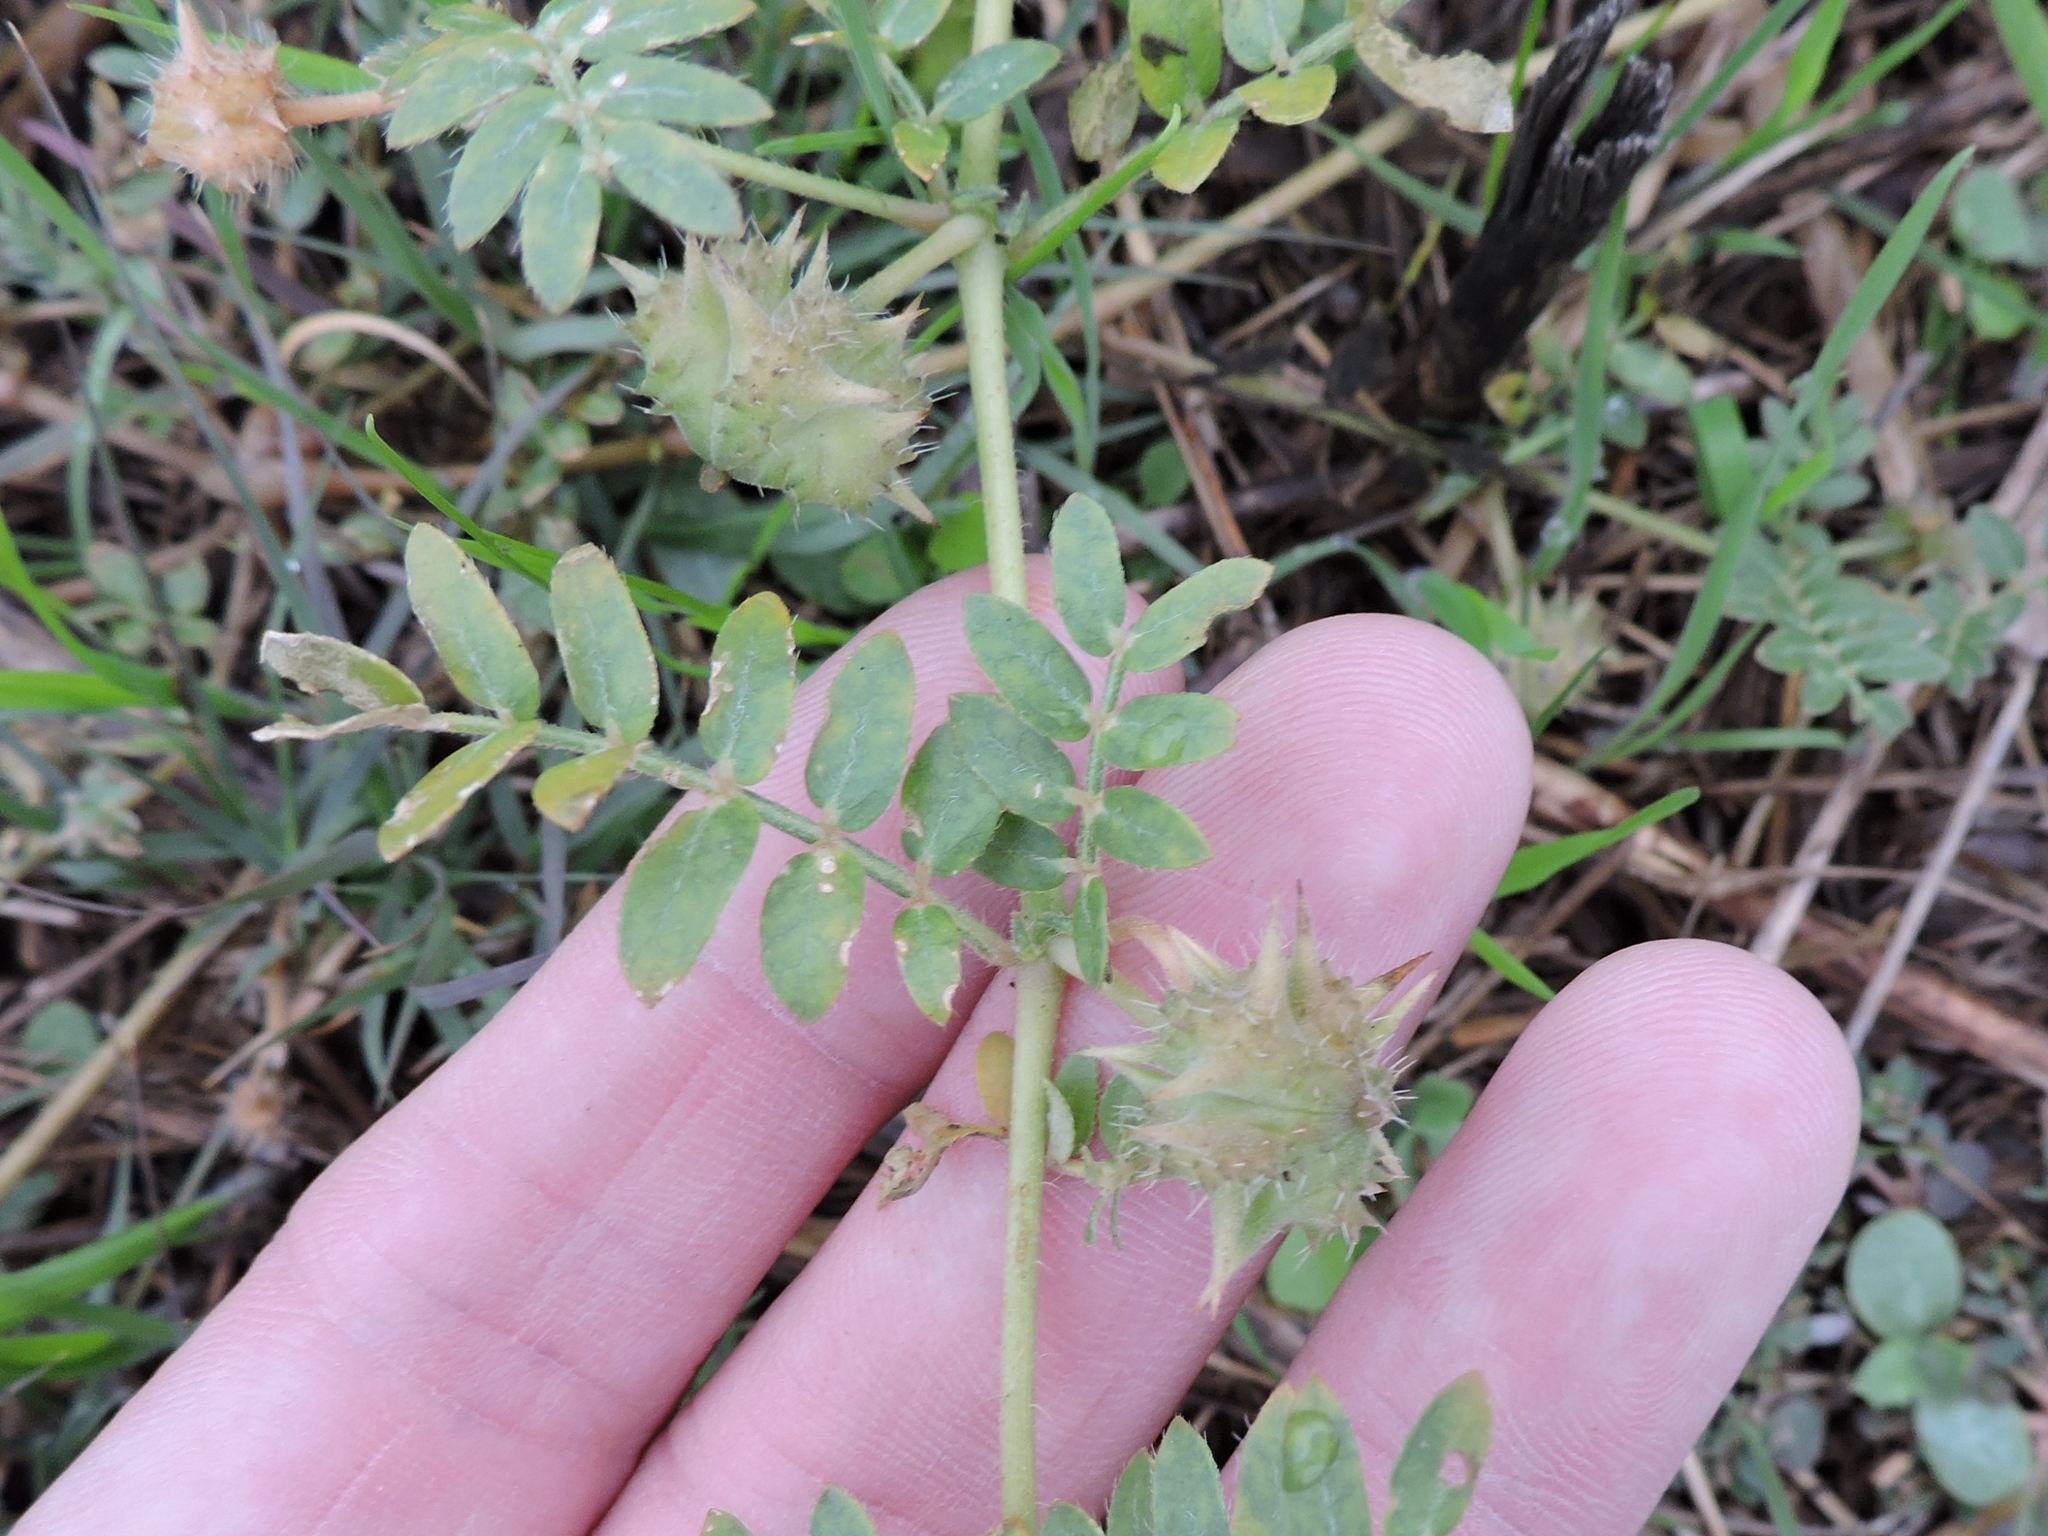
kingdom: Plantae
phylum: Tracheophyta
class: Magnoliopsida
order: Zygophyllales
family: Zygophyllaceae
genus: Tribulus
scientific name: Tribulus terrestris
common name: Puncturevine
